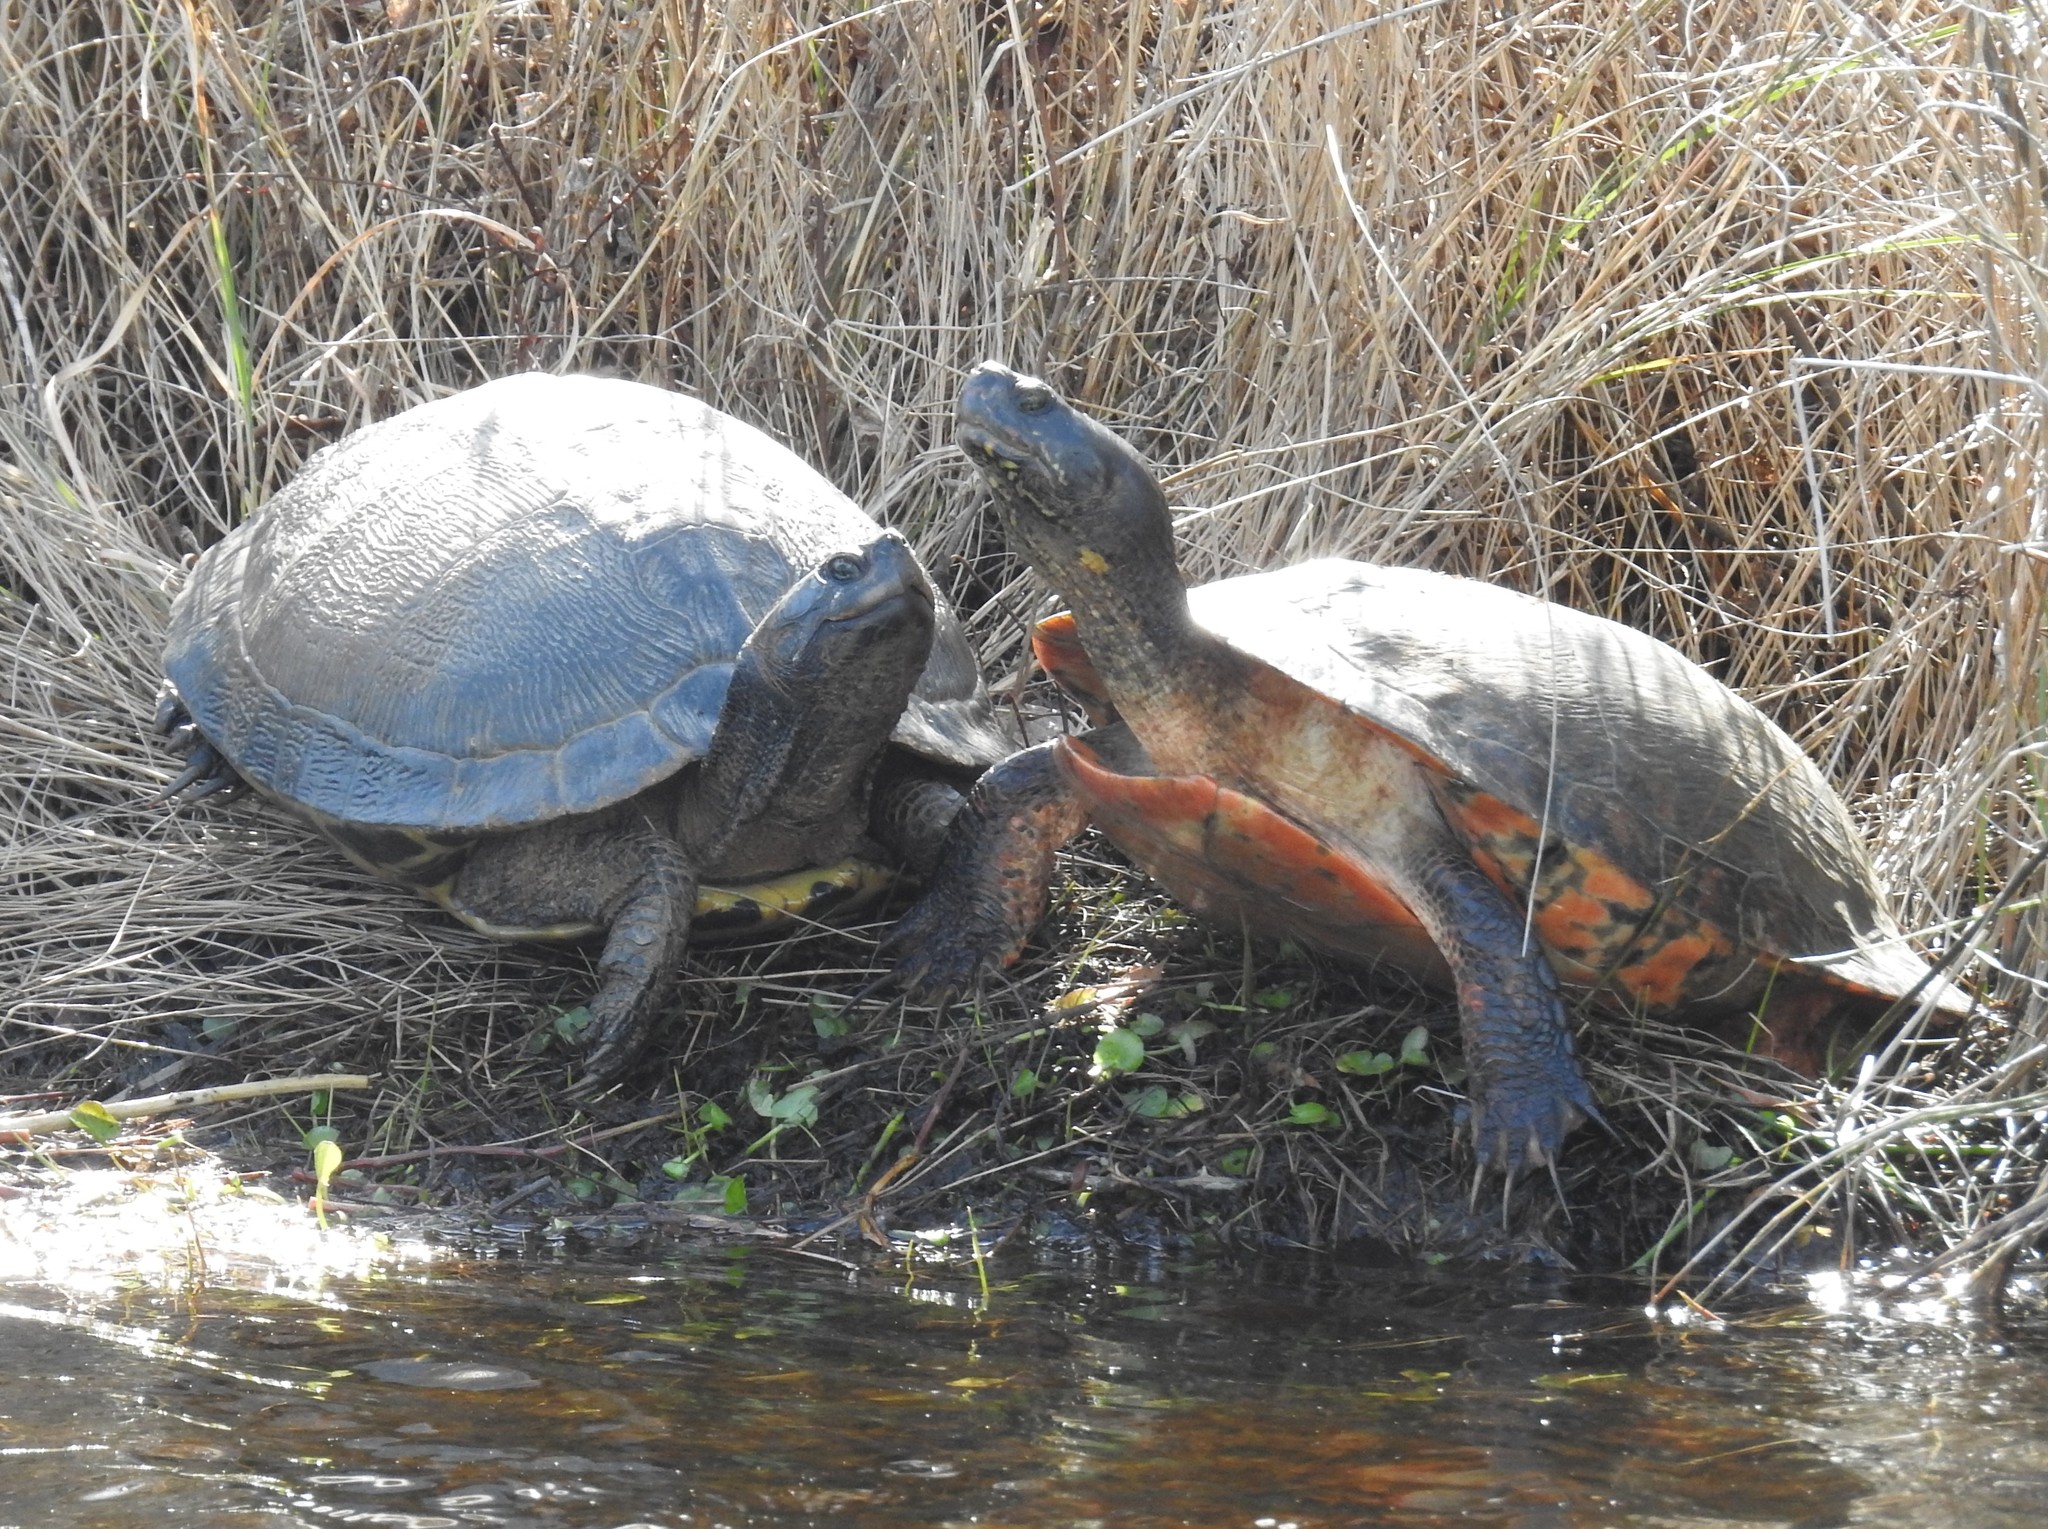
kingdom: Animalia
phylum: Chordata
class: Testudines
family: Emydidae
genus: Trachemys
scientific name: Trachemys scripta
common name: Slider
